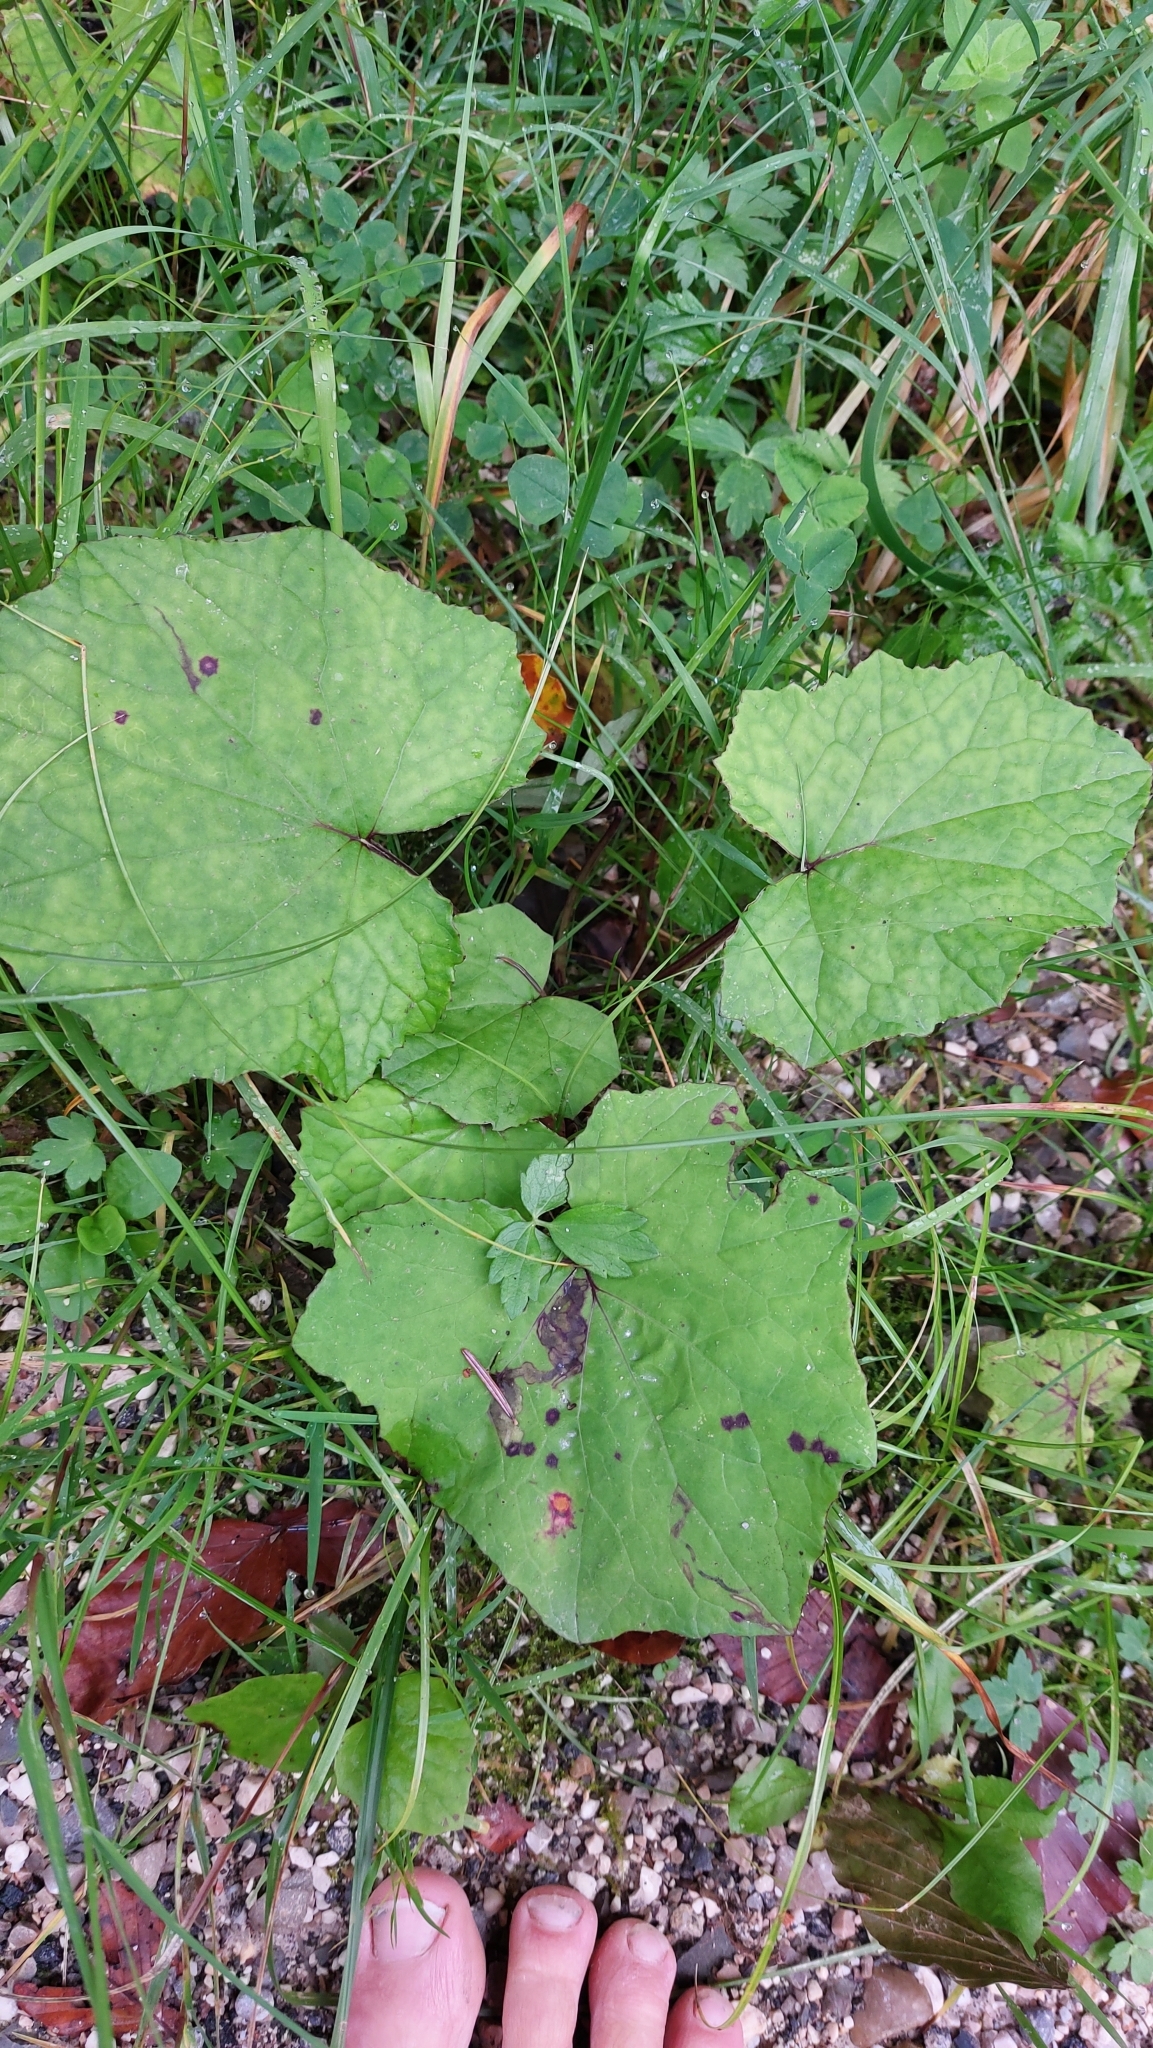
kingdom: Plantae
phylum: Tracheophyta
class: Magnoliopsida
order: Asterales
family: Asteraceae
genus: Tussilago
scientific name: Tussilago farfara
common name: Coltsfoot
